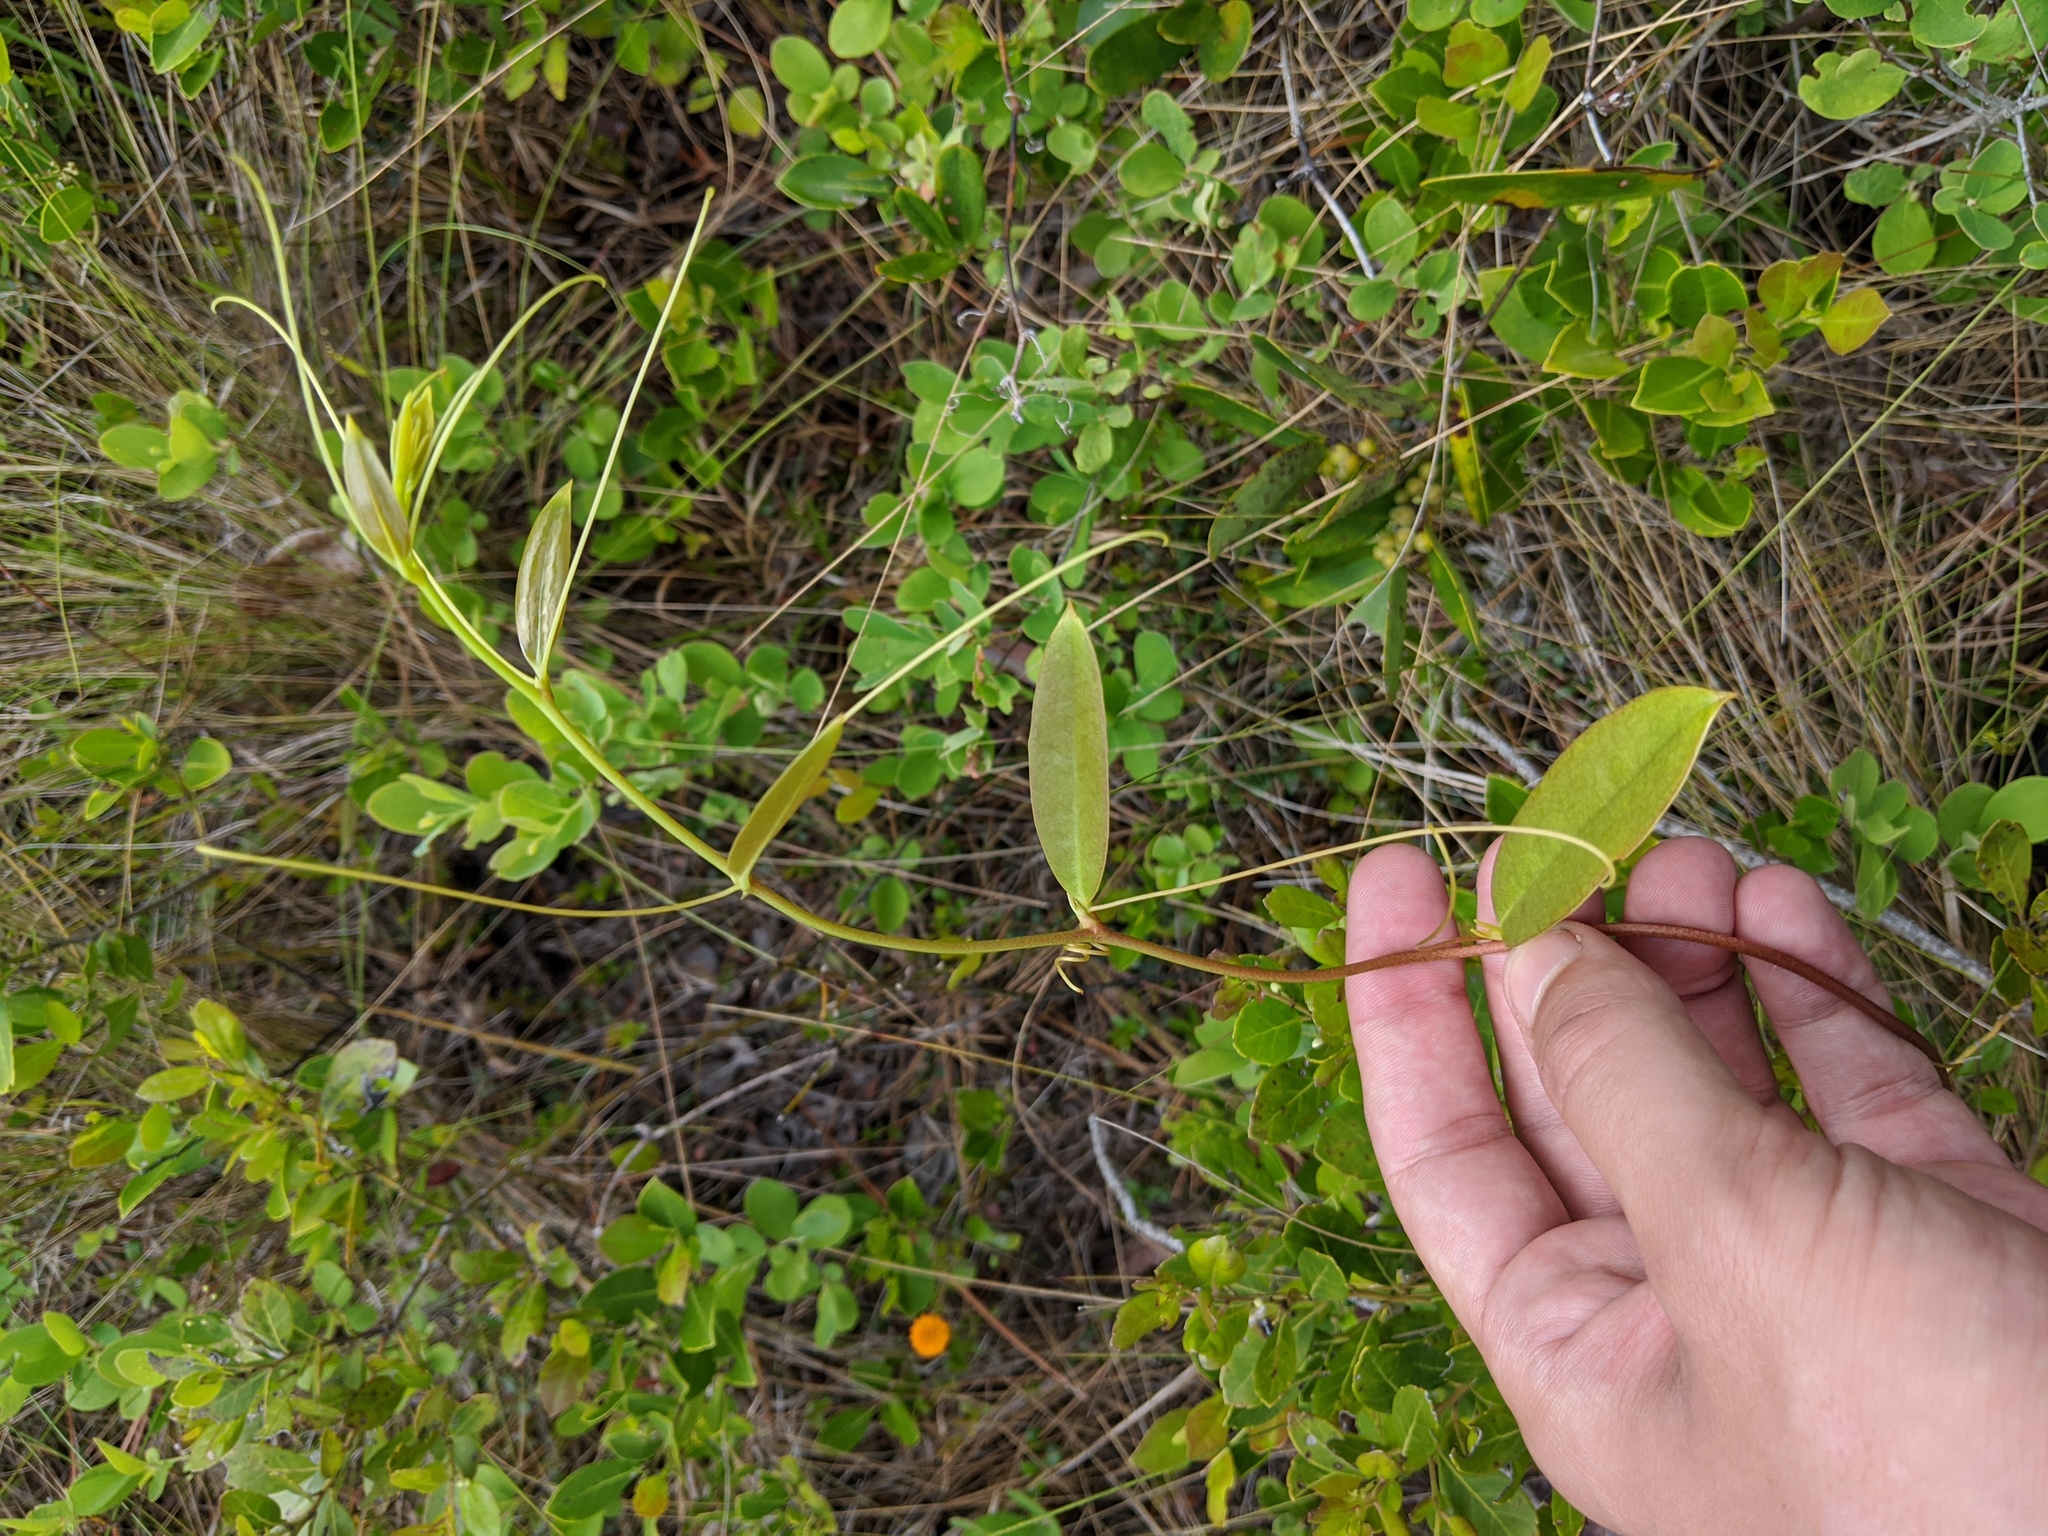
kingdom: Plantae
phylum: Tracheophyta
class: Liliopsida
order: Liliales
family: Smilacaceae
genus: Smilax
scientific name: Smilax laurifolia
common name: Bamboovine
